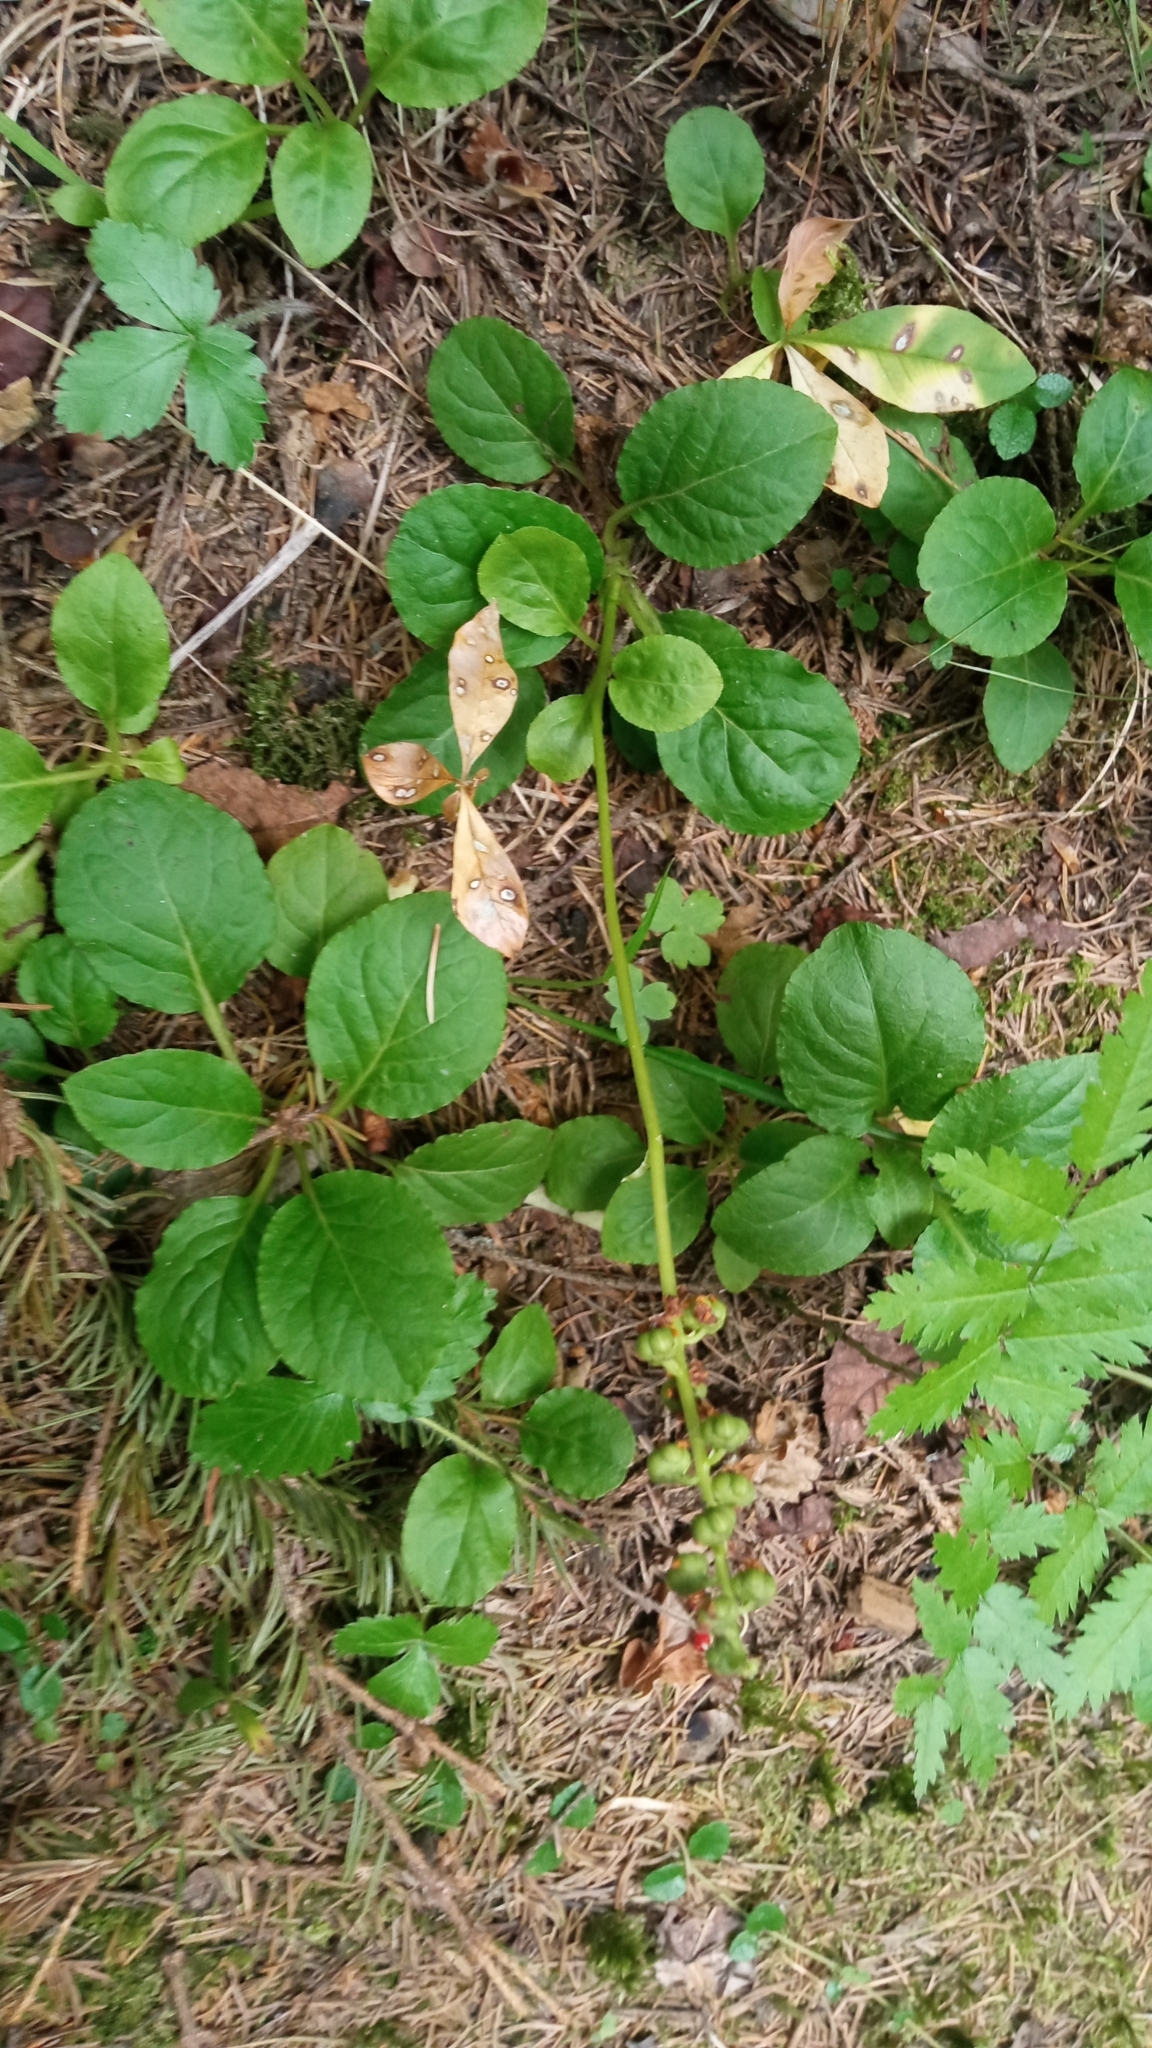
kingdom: Plantae
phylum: Tracheophyta
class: Magnoliopsida
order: Ericales
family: Ericaceae
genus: Pyrola
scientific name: Pyrola minor
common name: Common wintergreen
